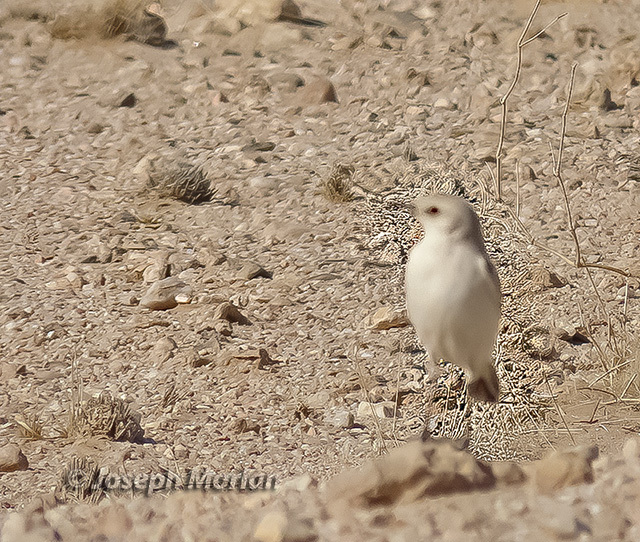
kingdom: Animalia
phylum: Chordata
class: Aves
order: Passeriformes
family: Muscicapidae
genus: Emarginata
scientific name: Emarginata tractrac
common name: Tractrac chat
